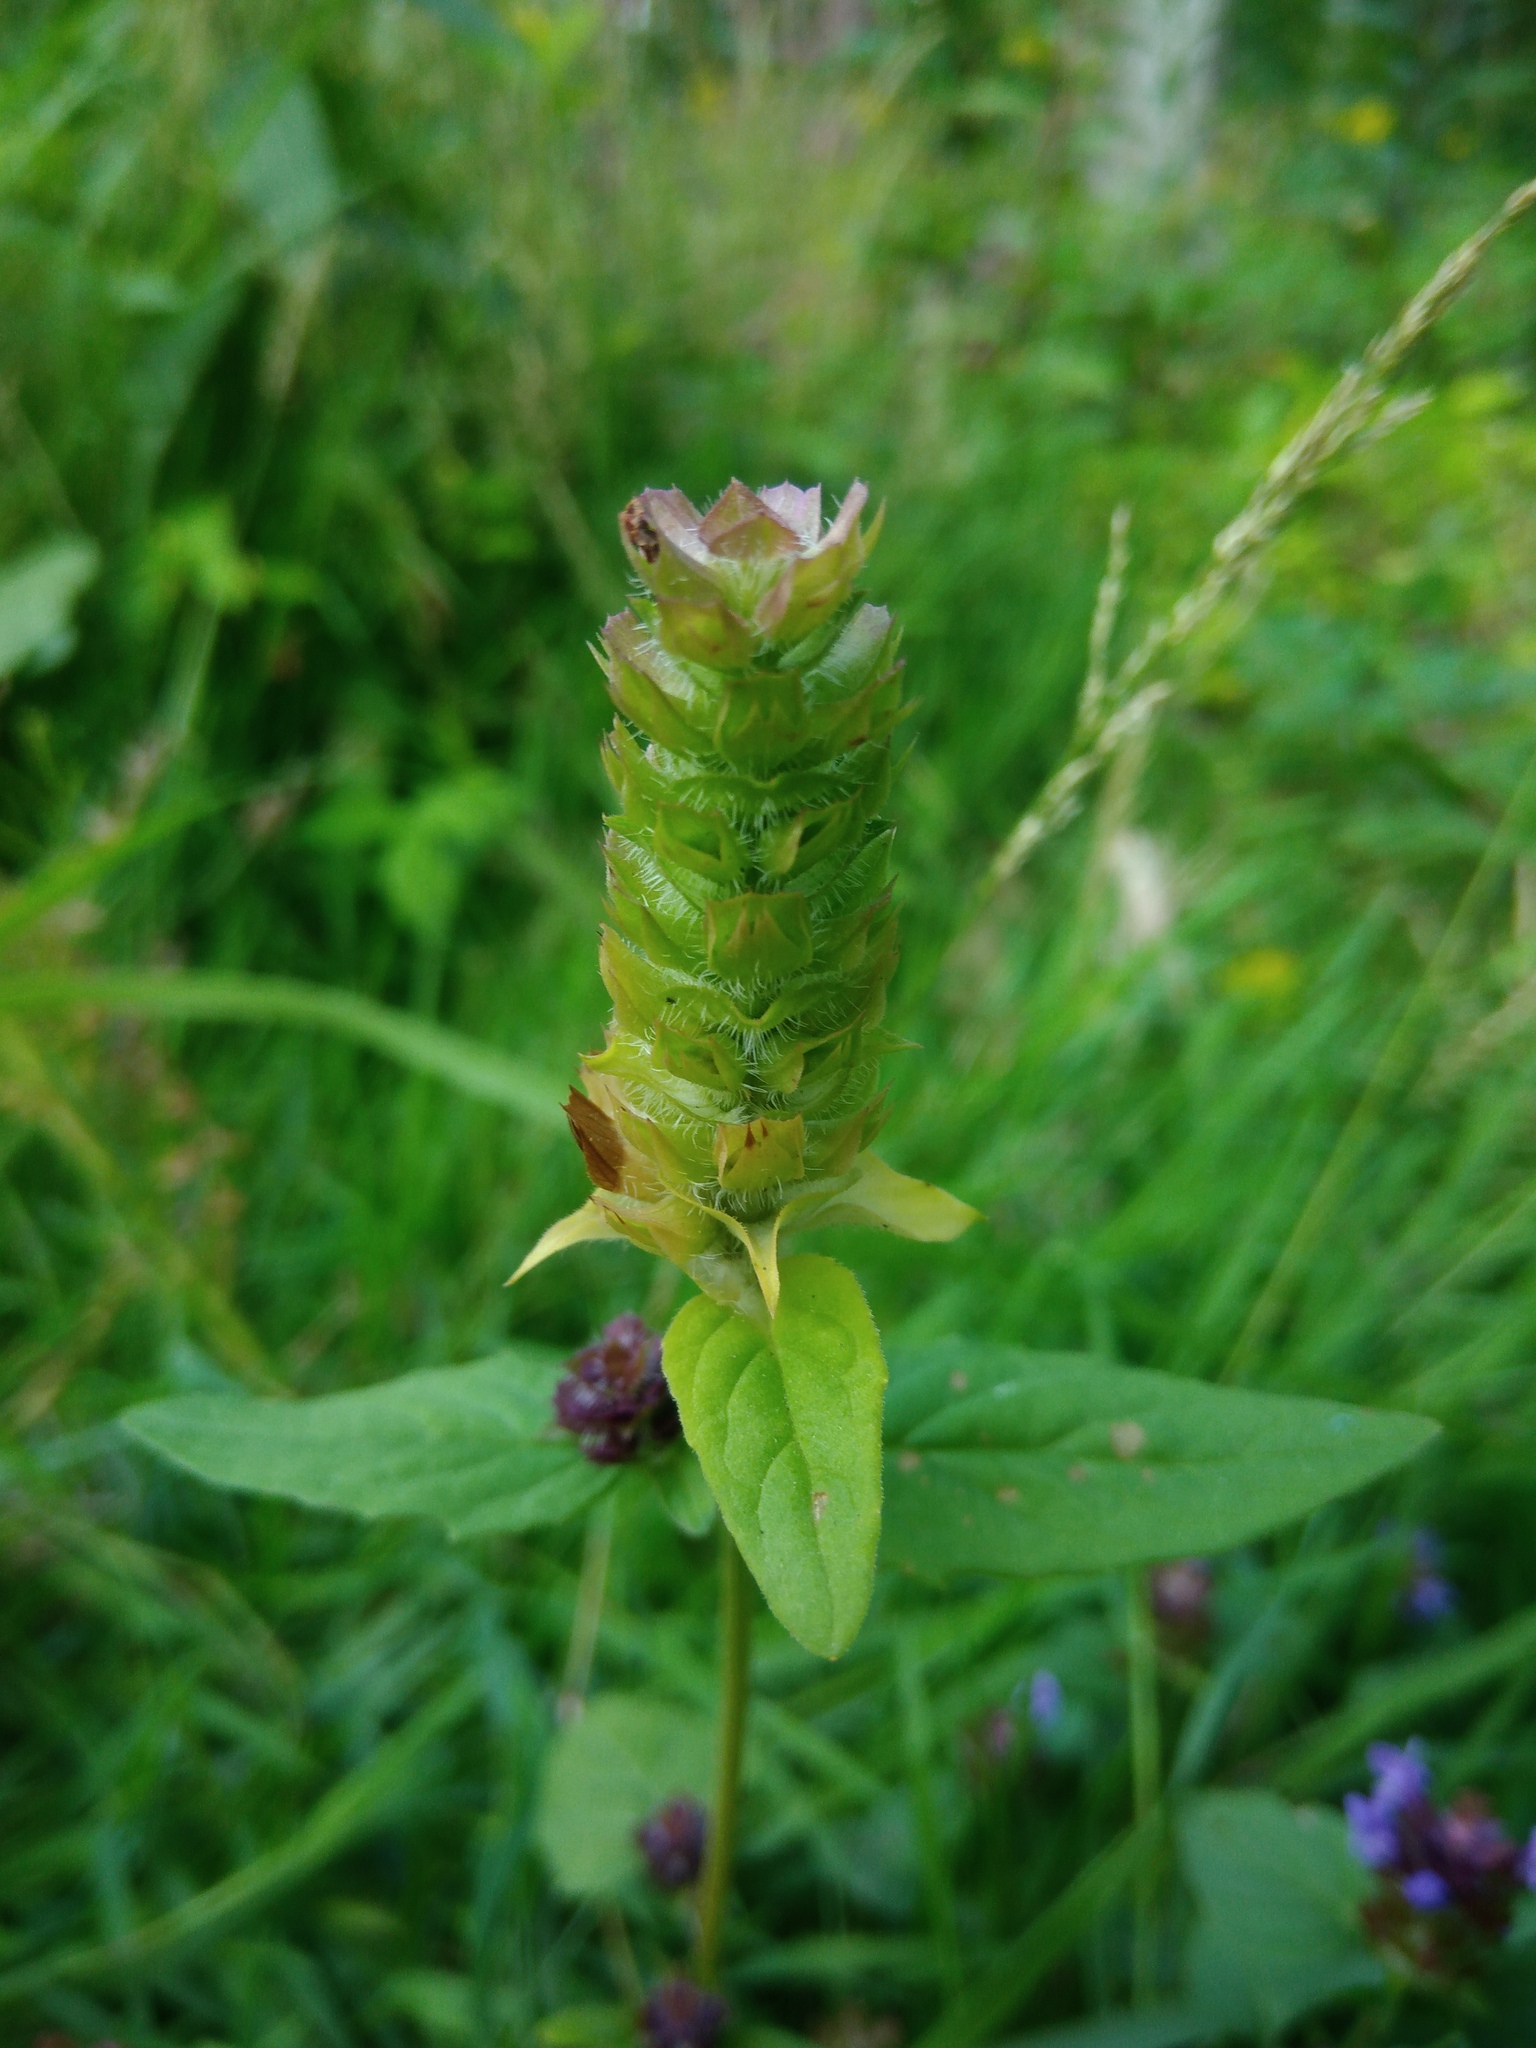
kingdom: Plantae
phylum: Tracheophyta
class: Magnoliopsida
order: Lamiales
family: Lamiaceae
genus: Prunella
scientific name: Prunella vulgaris
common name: Heal-all
